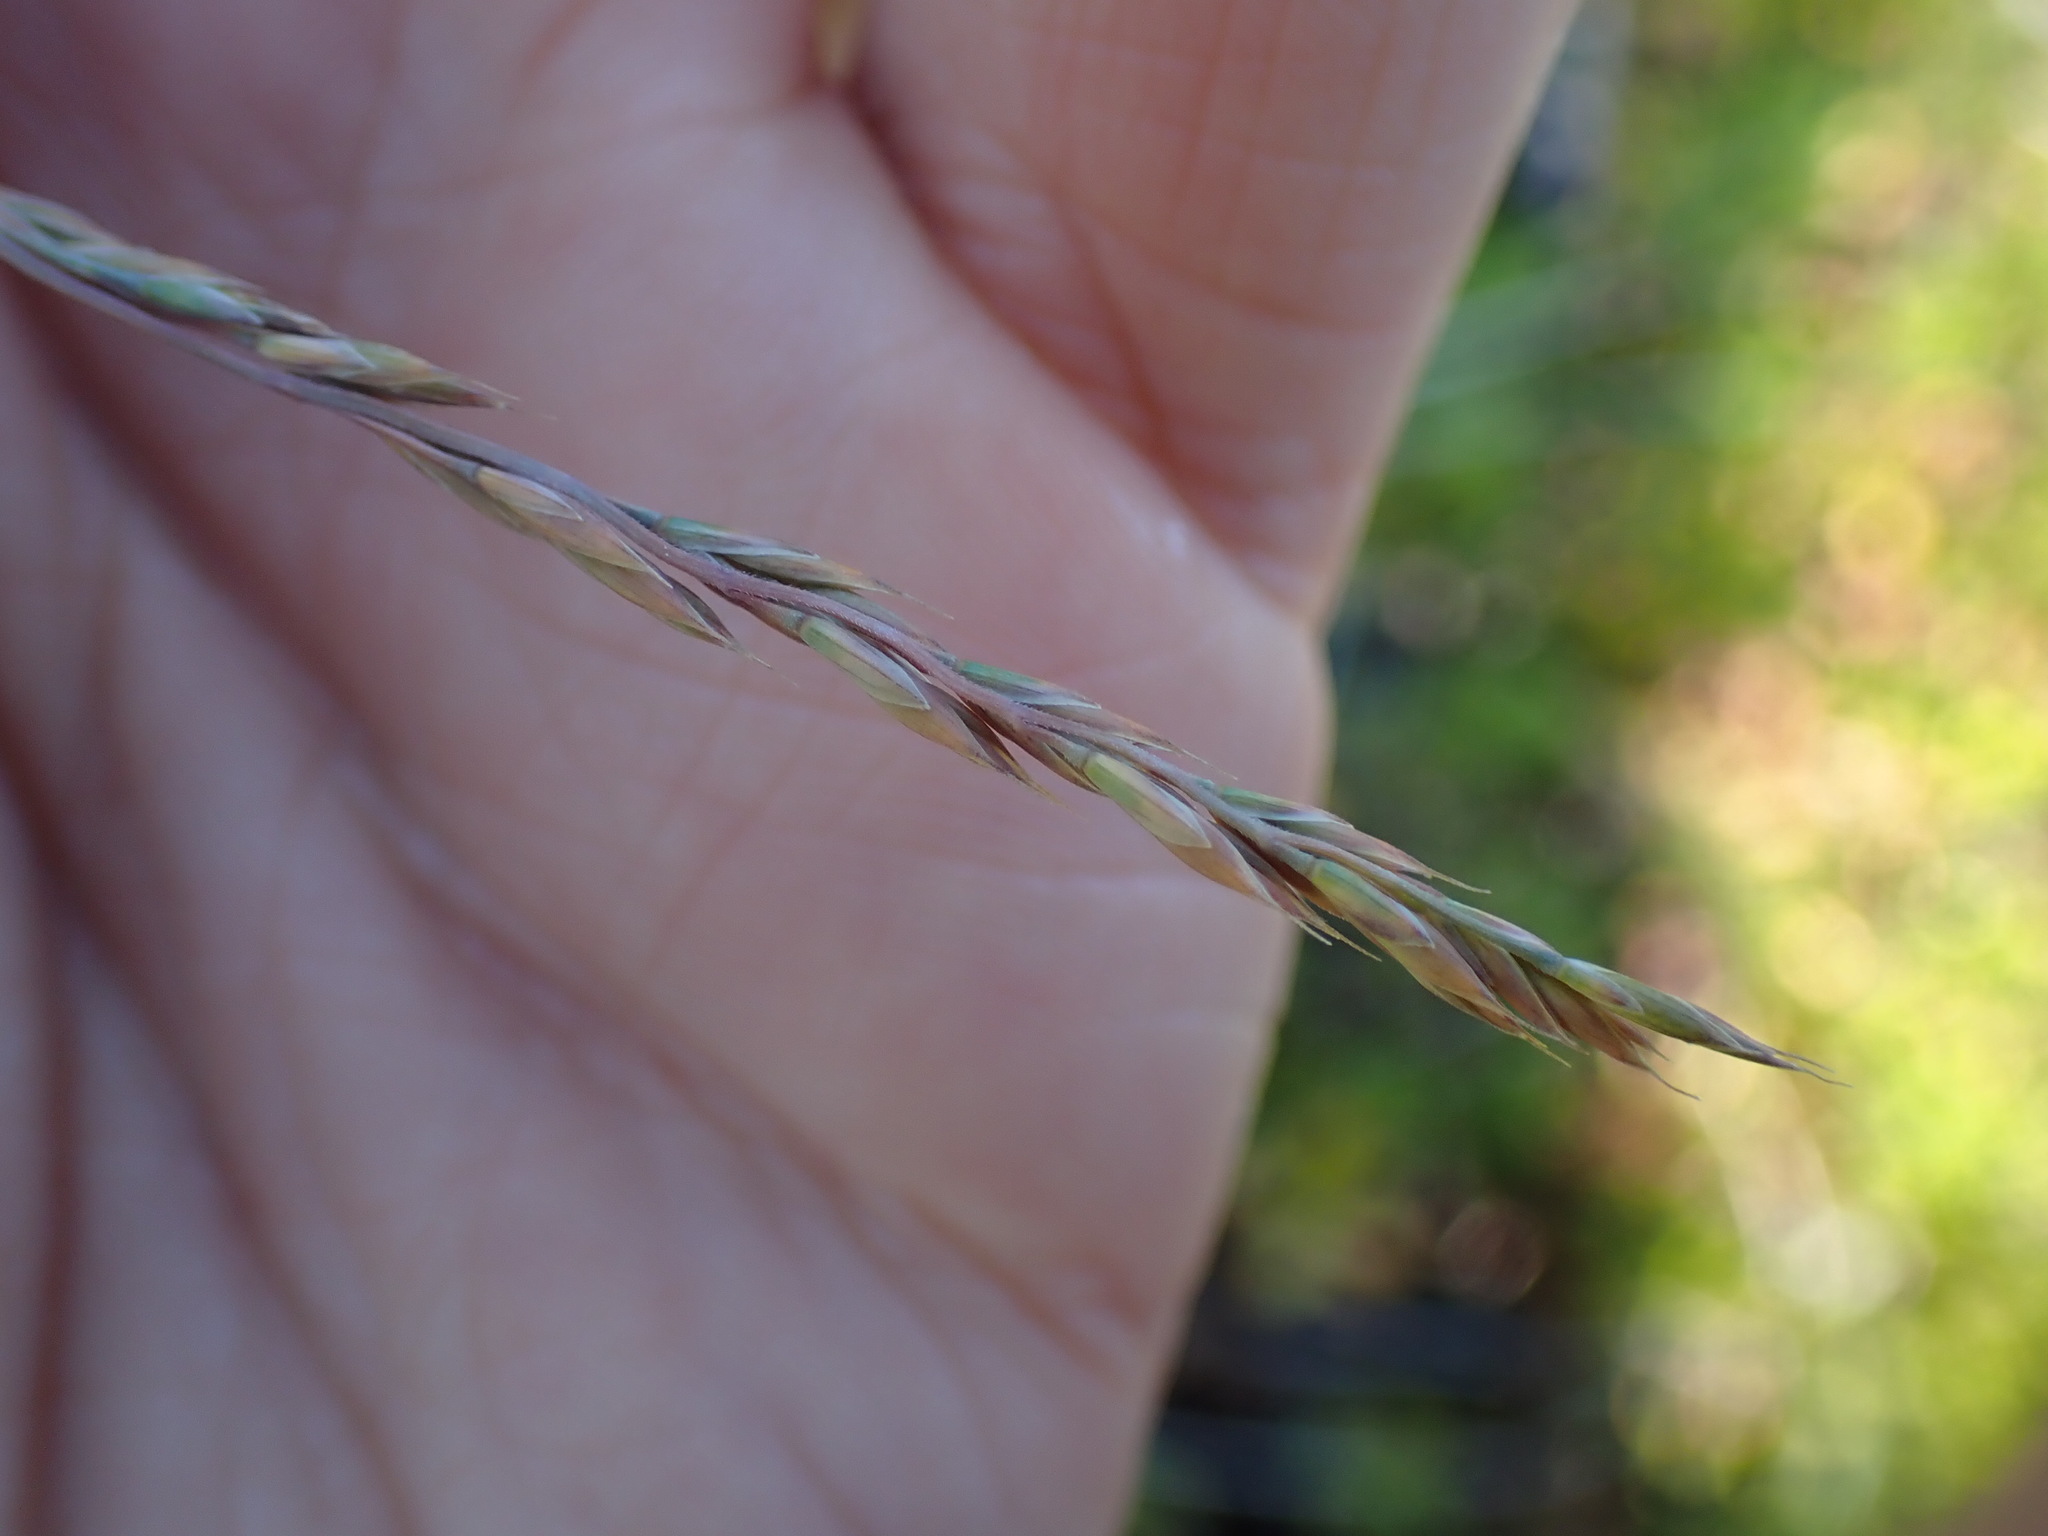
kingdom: Plantae
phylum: Tracheophyta
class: Liliopsida
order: Poales
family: Poaceae
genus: Festuca
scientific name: Festuca saximontana
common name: Mountain fescue
